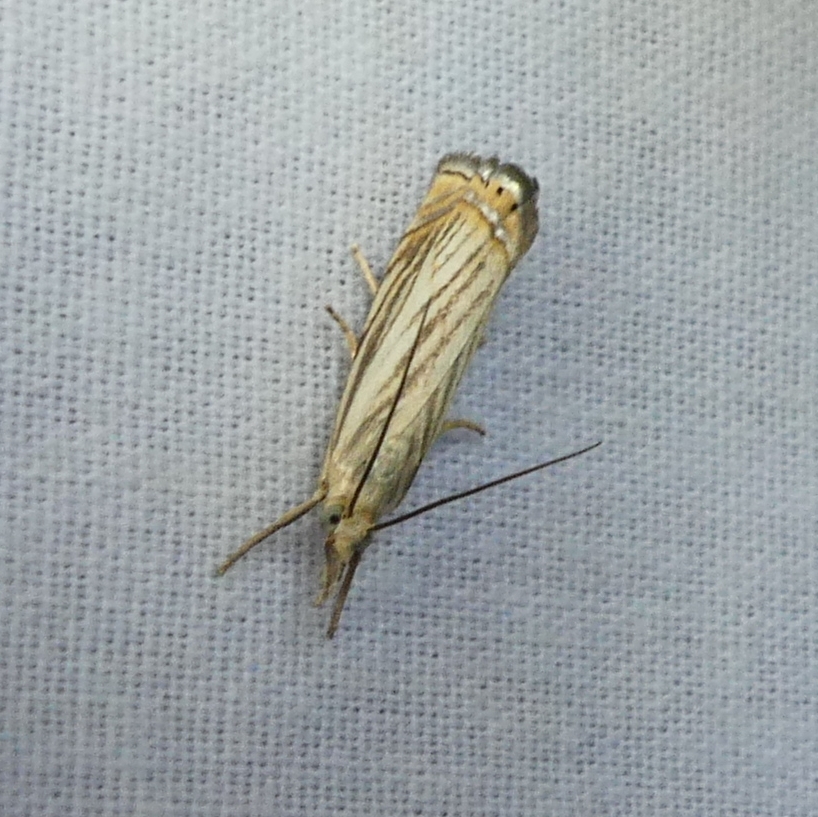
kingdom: Animalia
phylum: Arthropoda
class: Insecta
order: Lepidoptera
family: Crambidae
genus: Chrysoteuchia
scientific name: Chrysoteuchia topiarius
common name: Topiary grass-veneer
